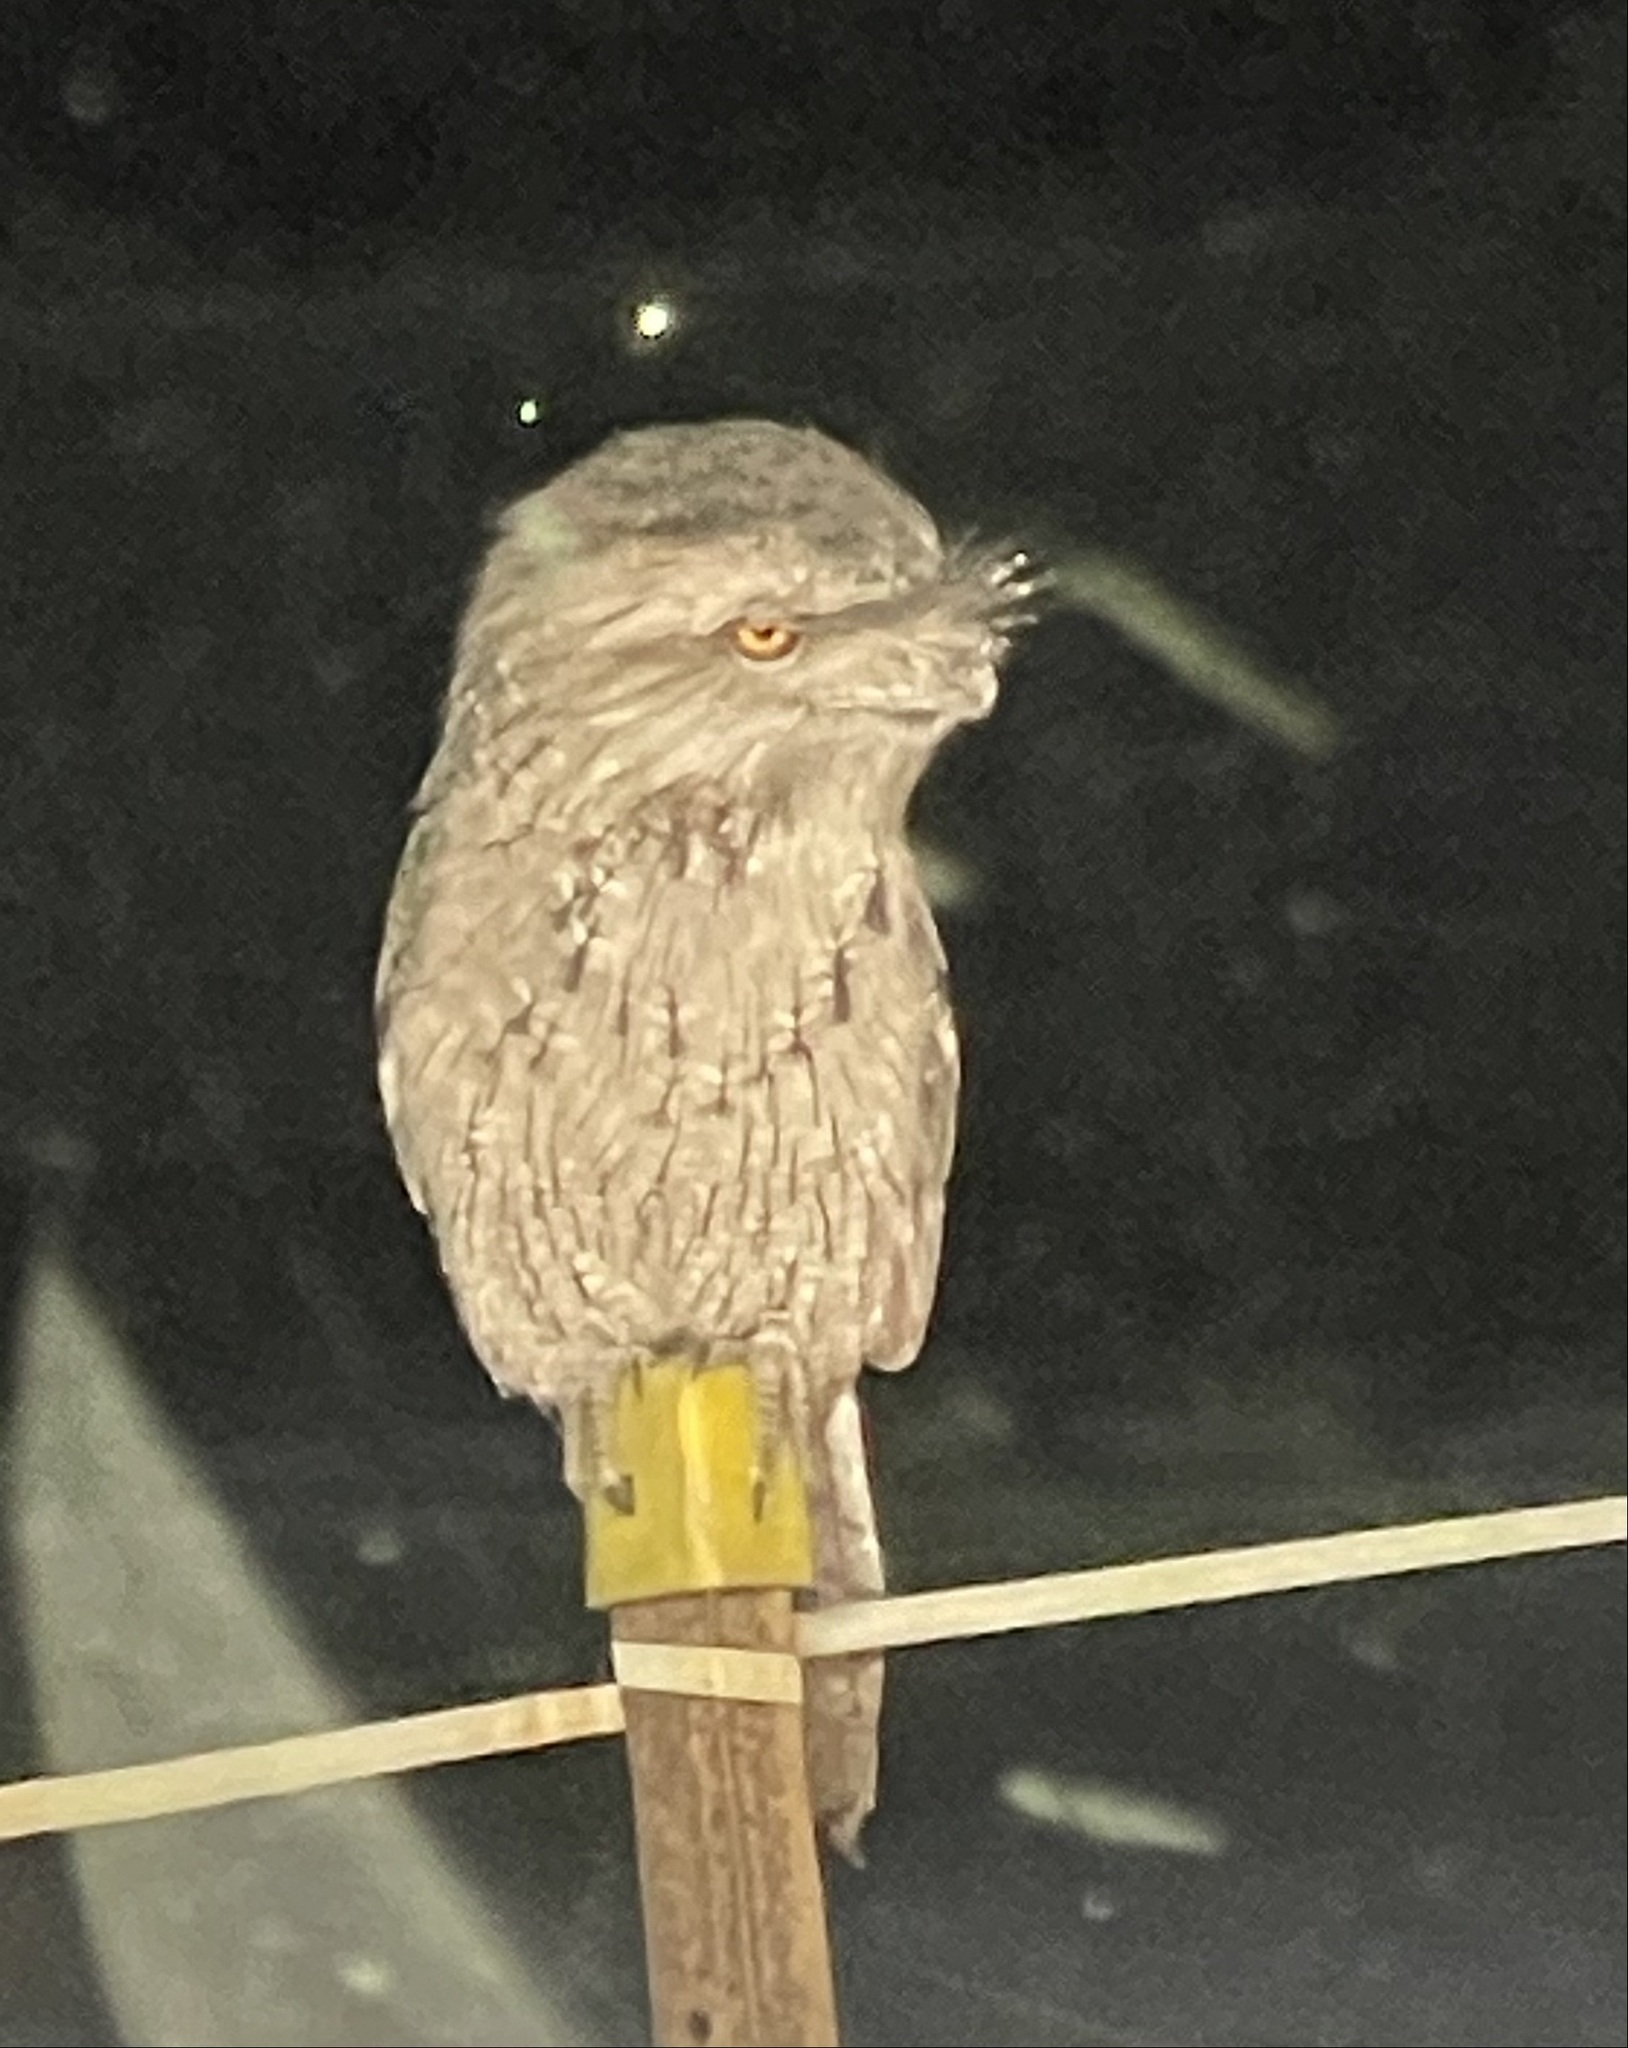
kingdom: Animalia
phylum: Chordata
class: Aves
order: Caprimulgiformes
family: Podargidae
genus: Podargus
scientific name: Podargus strigoides
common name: Tawny frogmouth
